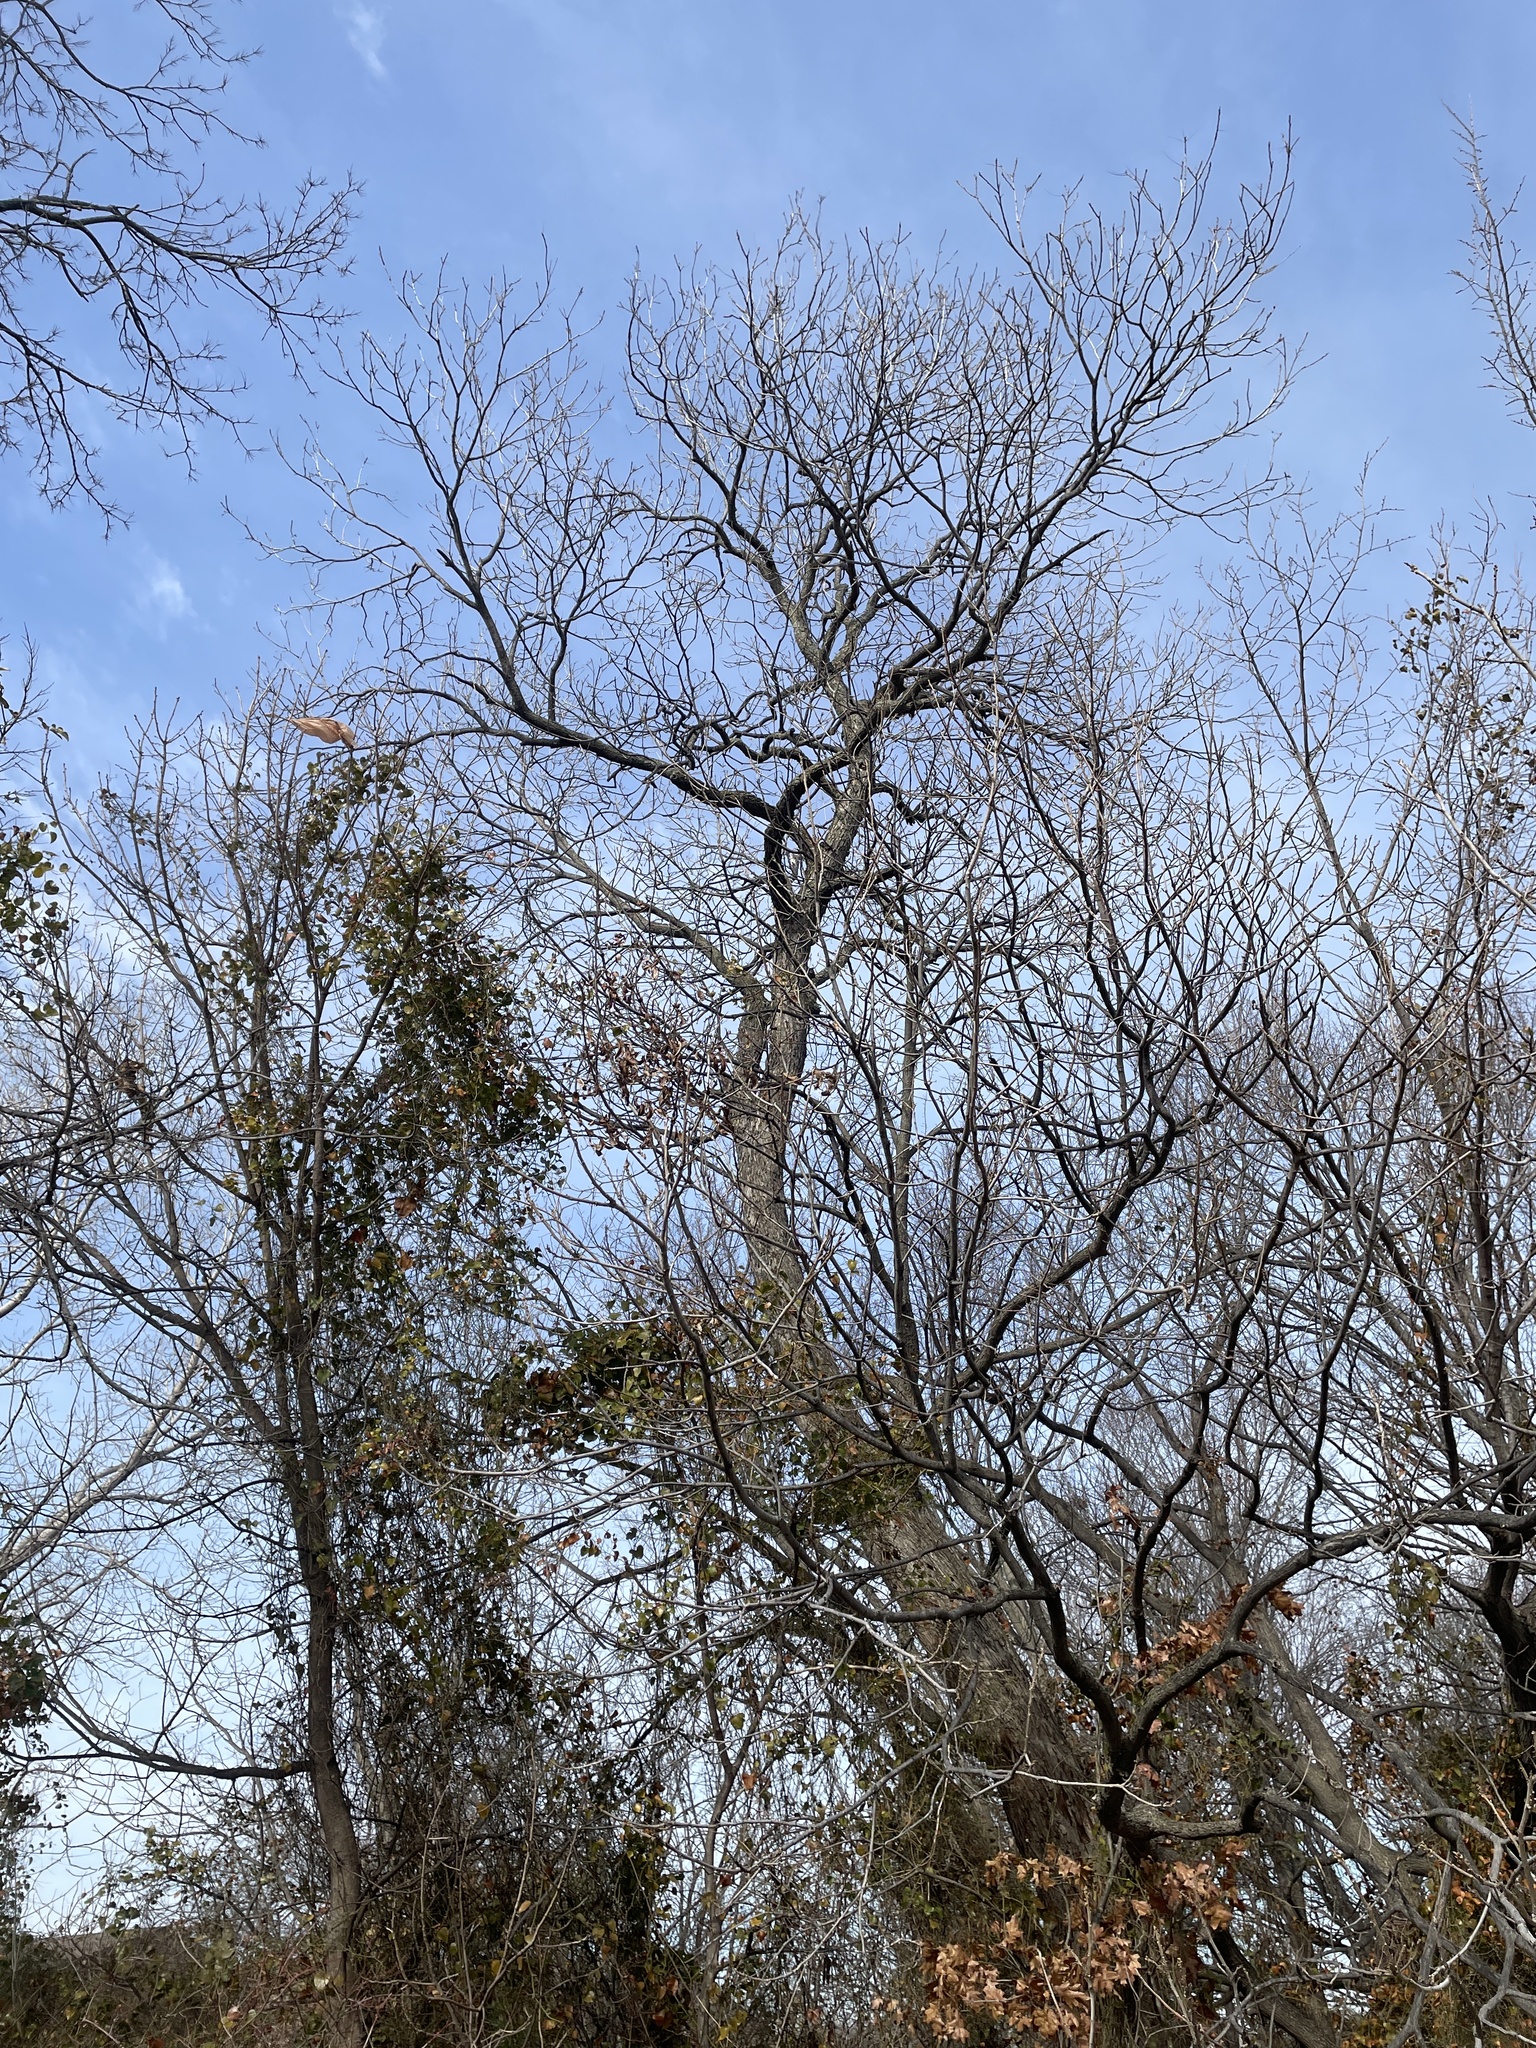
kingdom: Plantae
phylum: Tracheophyta
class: Magnoliopsida
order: Fagales
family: Juglandaceae
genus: Carya
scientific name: Carya illinoinensis
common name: Pecan
